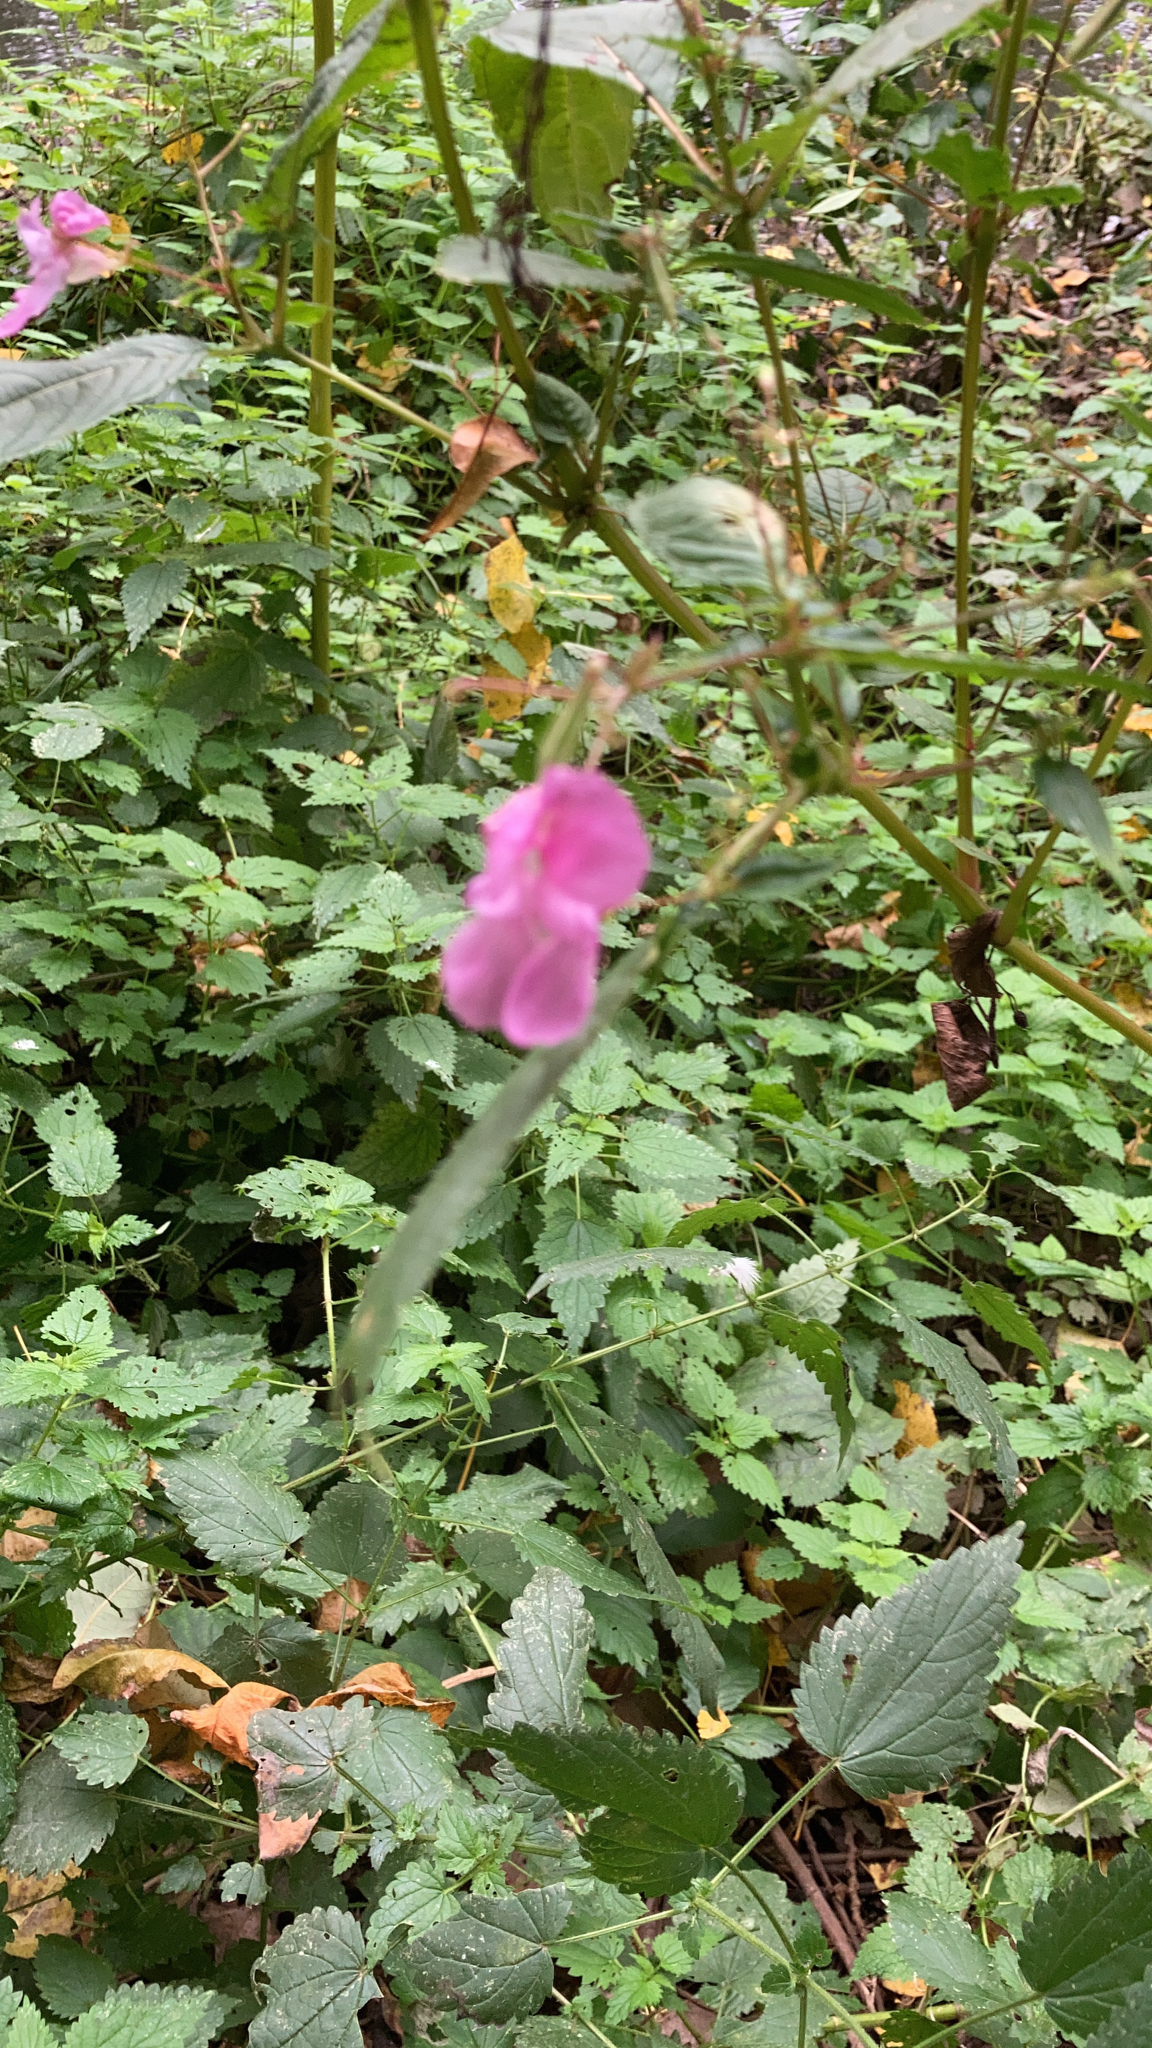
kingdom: Plantae
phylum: Tracheophyta
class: Magnoliopsida
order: Ericales
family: Balsaminaceae
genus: Impatiens
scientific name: Impatiens glandulifera
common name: Himalayan balsam
